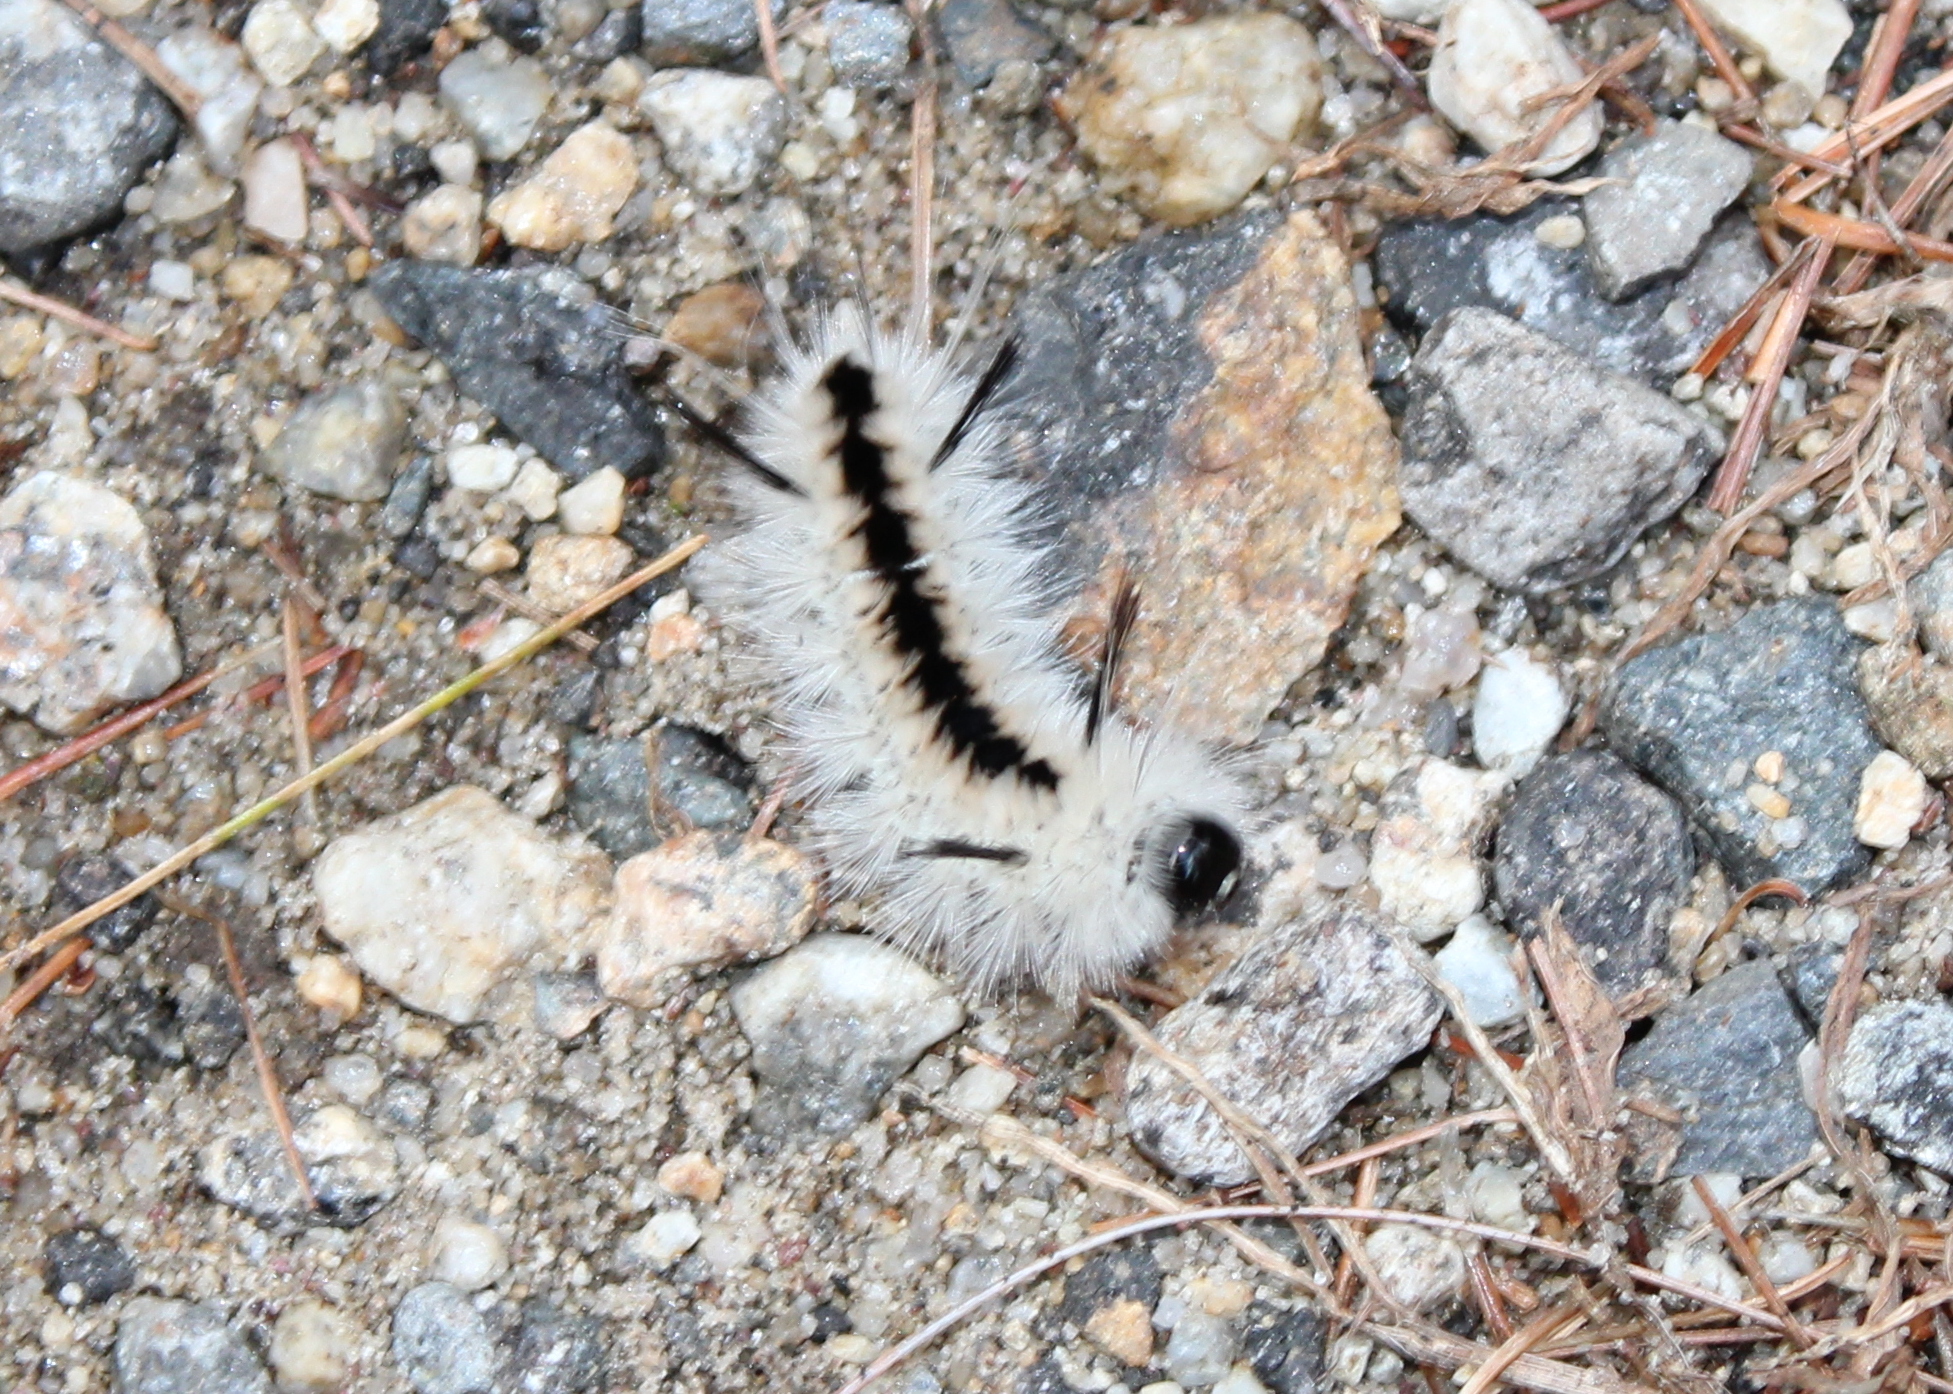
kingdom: Animalia
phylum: Arthropoda
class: Insecta
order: Lepidoptera
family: Erebidae
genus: Lophocampa
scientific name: Lophocampa caryae
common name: Hickory tussock moth
